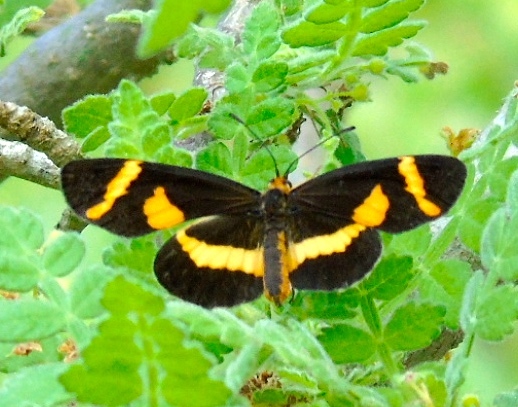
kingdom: Animalia
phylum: Arthropoda
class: Insecta
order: Lepidoptera
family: Nymphalidae
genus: Microtia
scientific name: Microtia elva
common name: Elf
